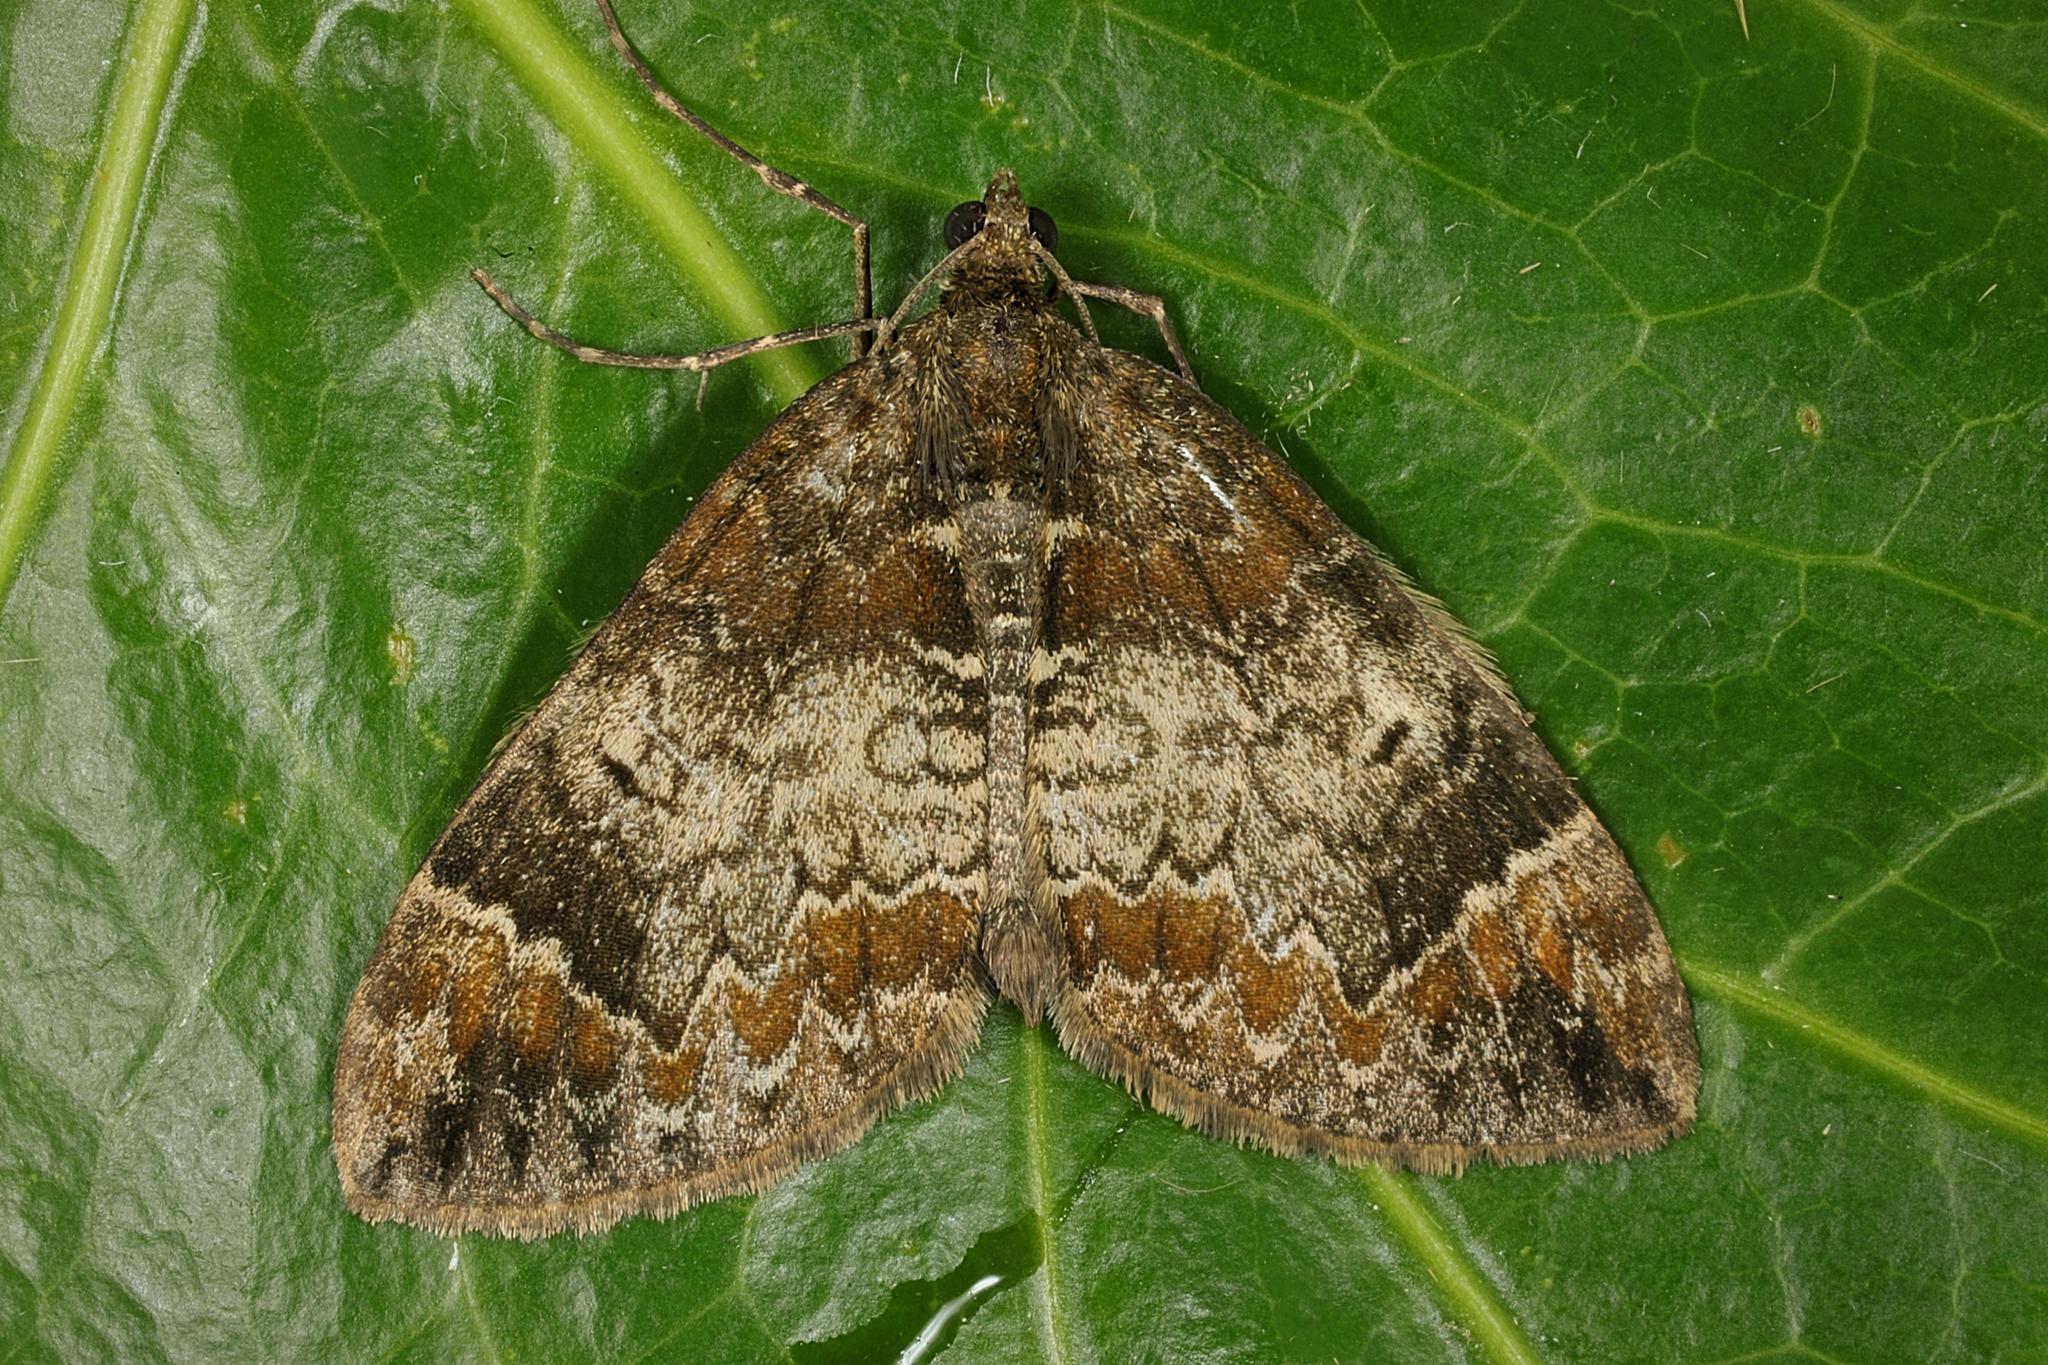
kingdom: Animalia
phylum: Arthropoda
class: Insecta
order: Lepidoptera
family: Geometridae
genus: Dysstroma
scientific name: Dysstroma truncata
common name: Common marbled carpet
